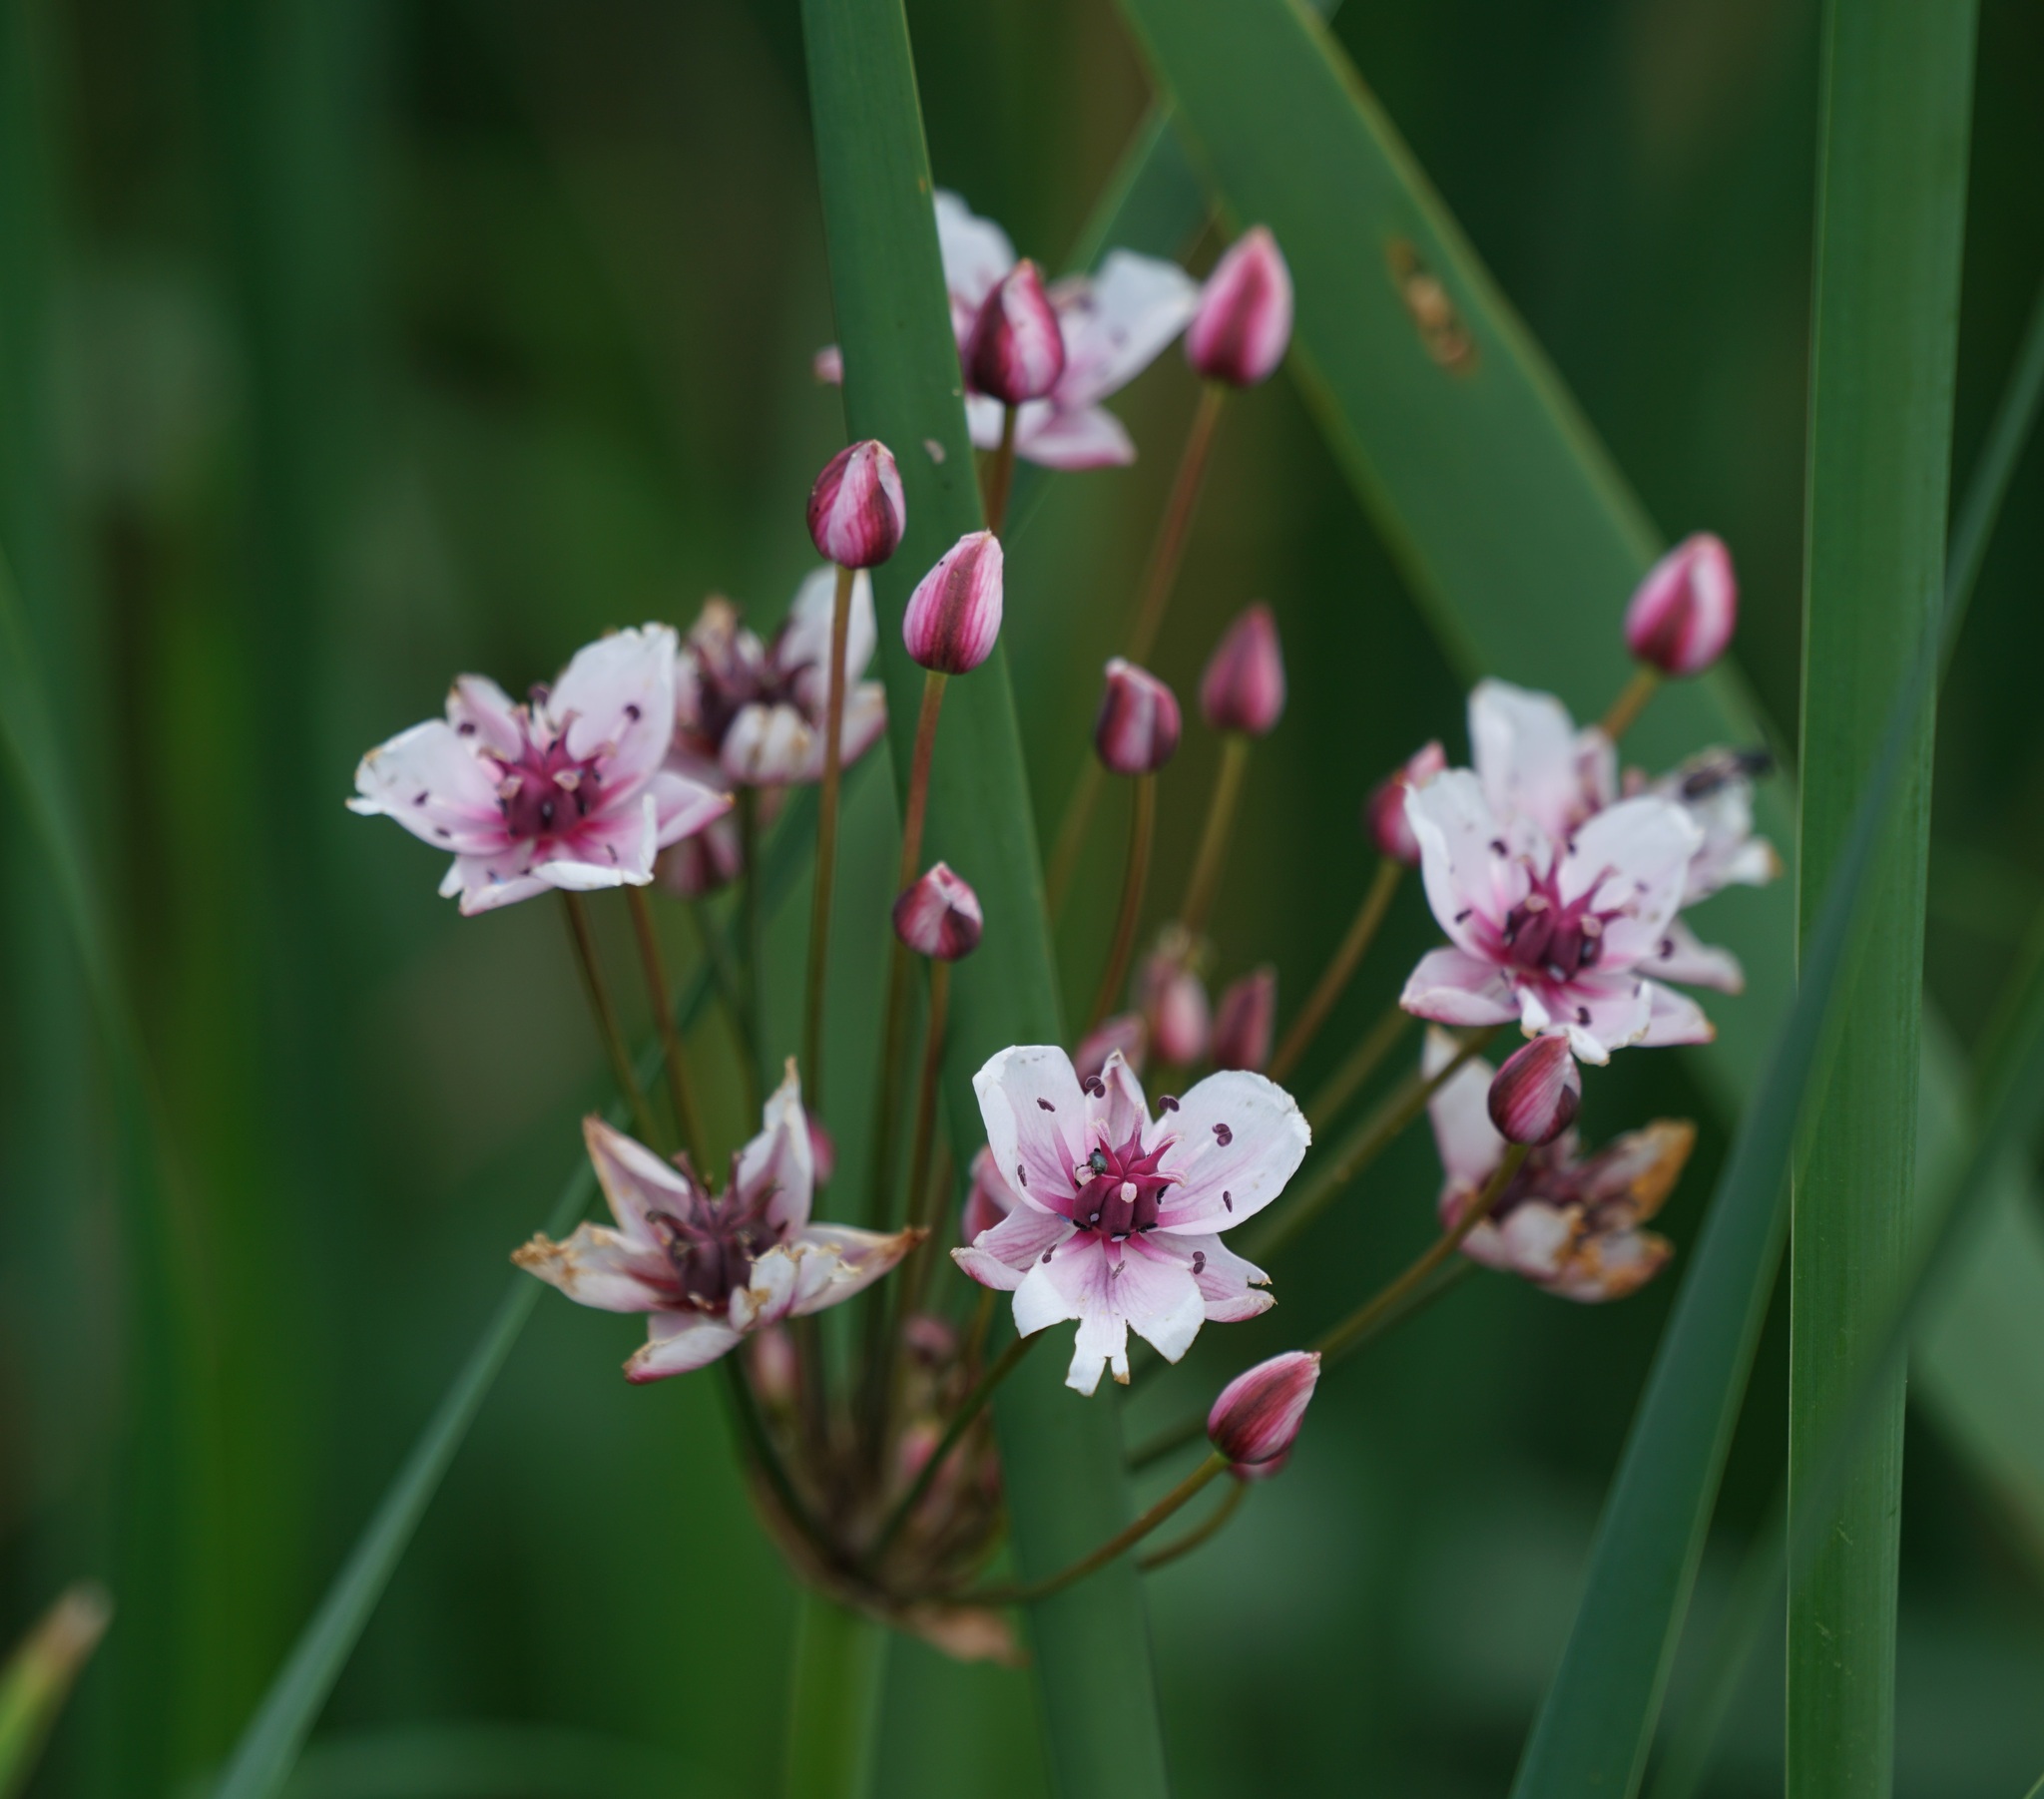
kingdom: Plantae
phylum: Tracheophyta
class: Liliopsida
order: Alismatales
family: Butomaceae
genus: Butomus
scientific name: Butomus umbellatus
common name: Flowering-rush
